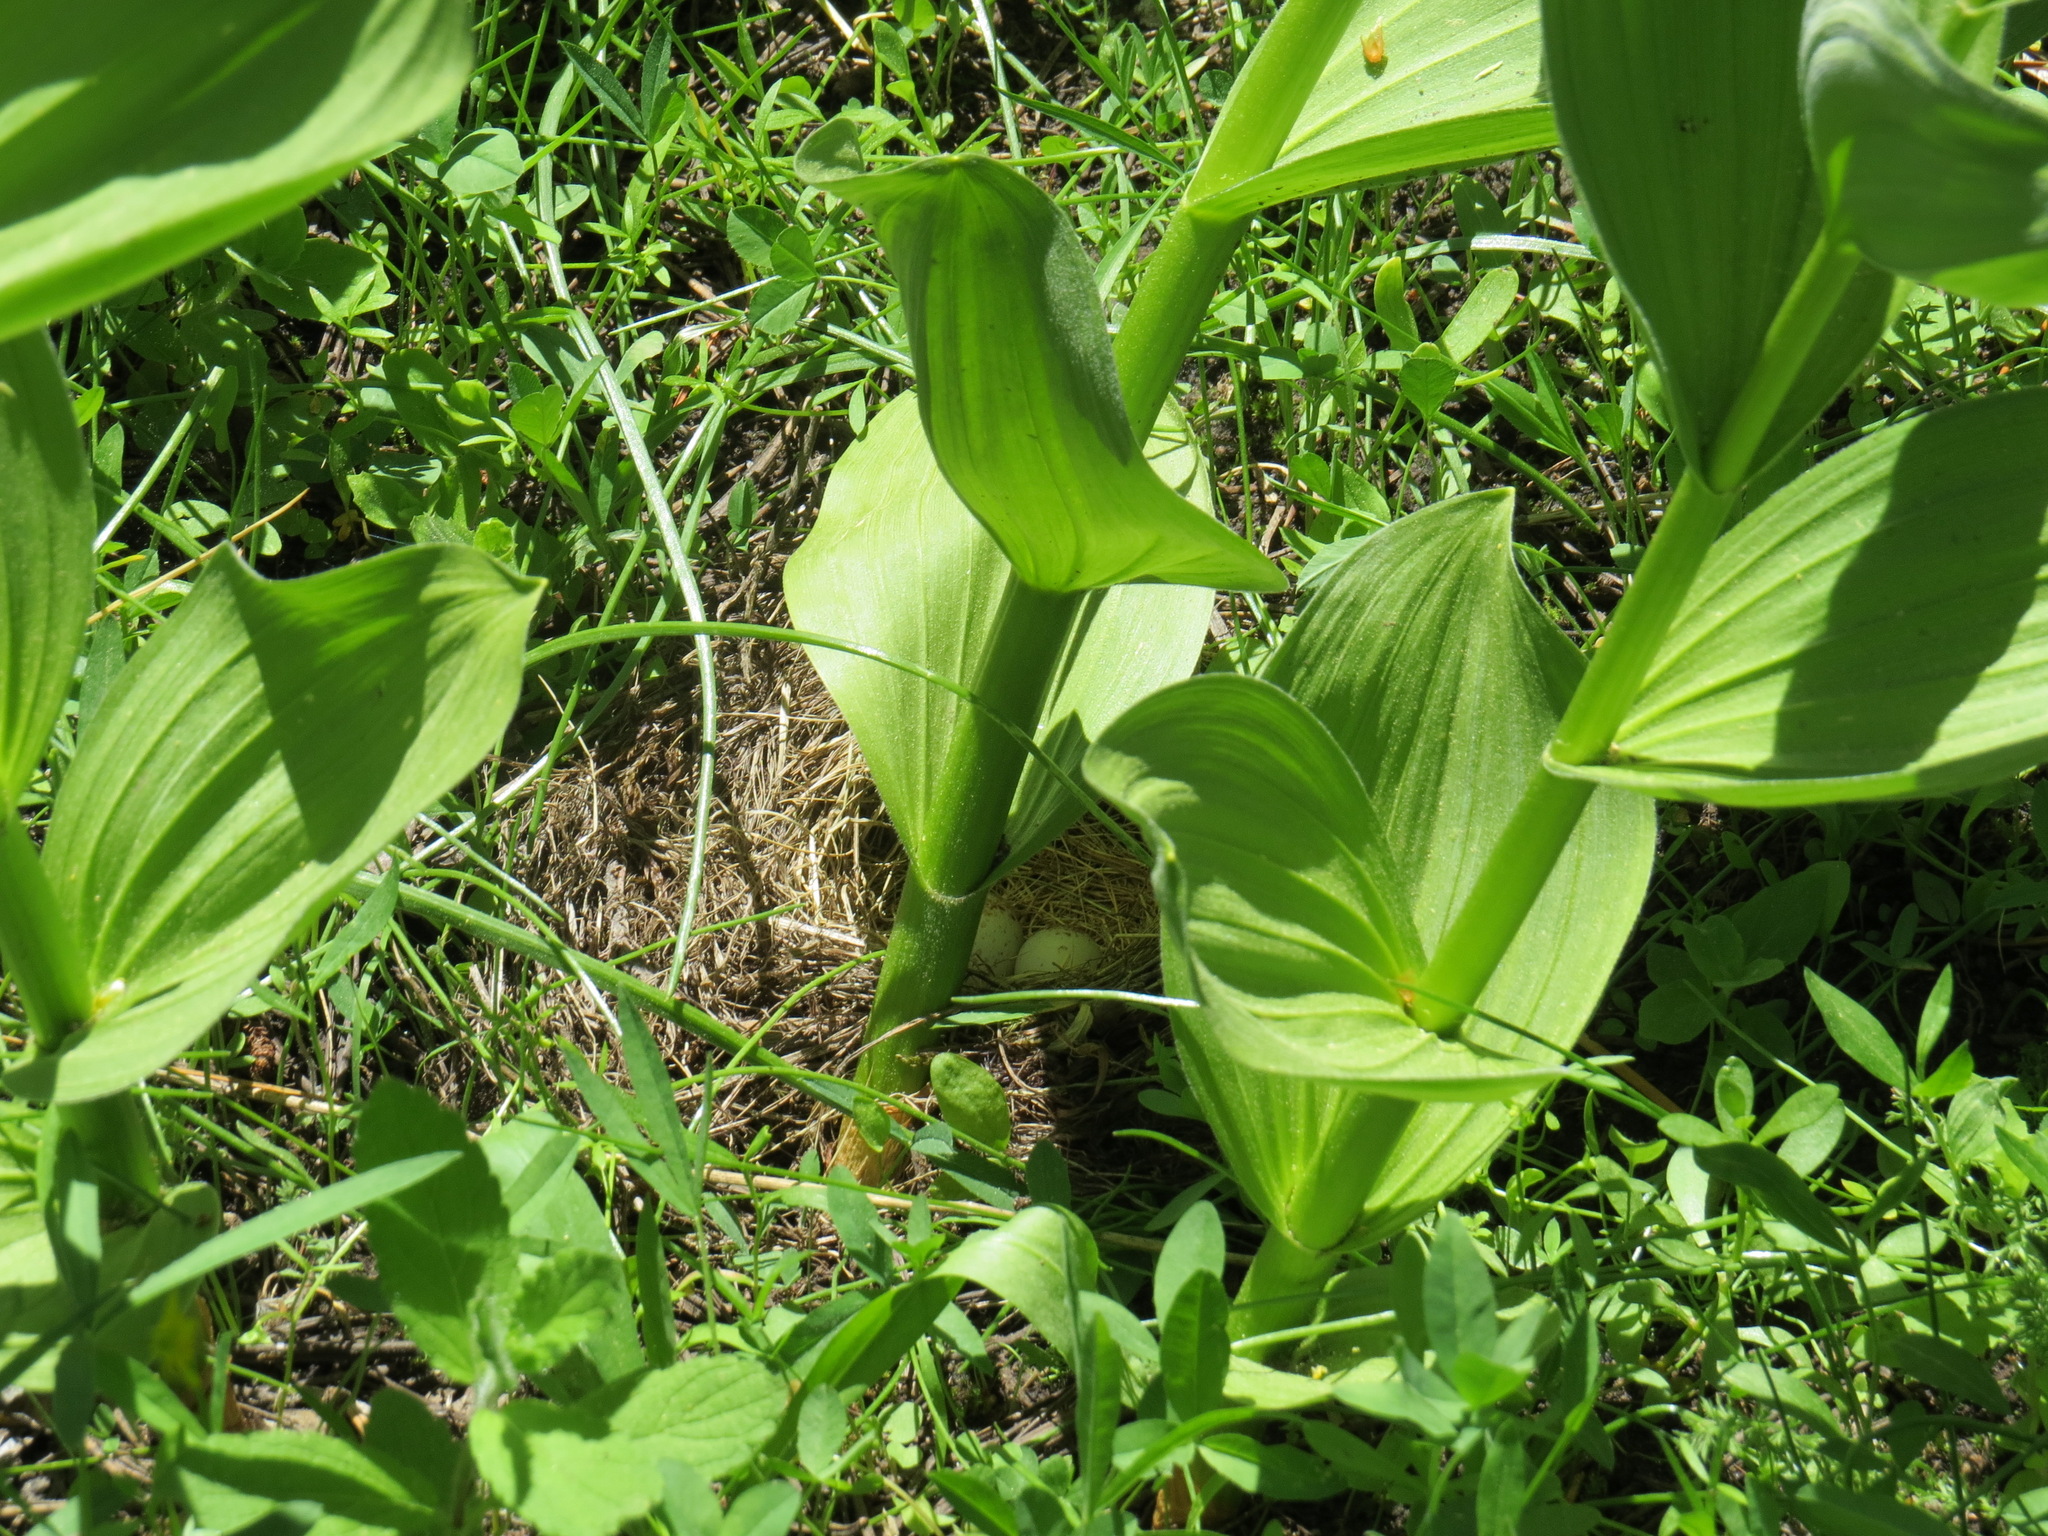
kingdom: Animalia
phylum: Chordata
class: Aves
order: Passeriformes
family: Passerellidae
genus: Junco
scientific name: Junco hyemalis
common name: Dark-eyed junco
